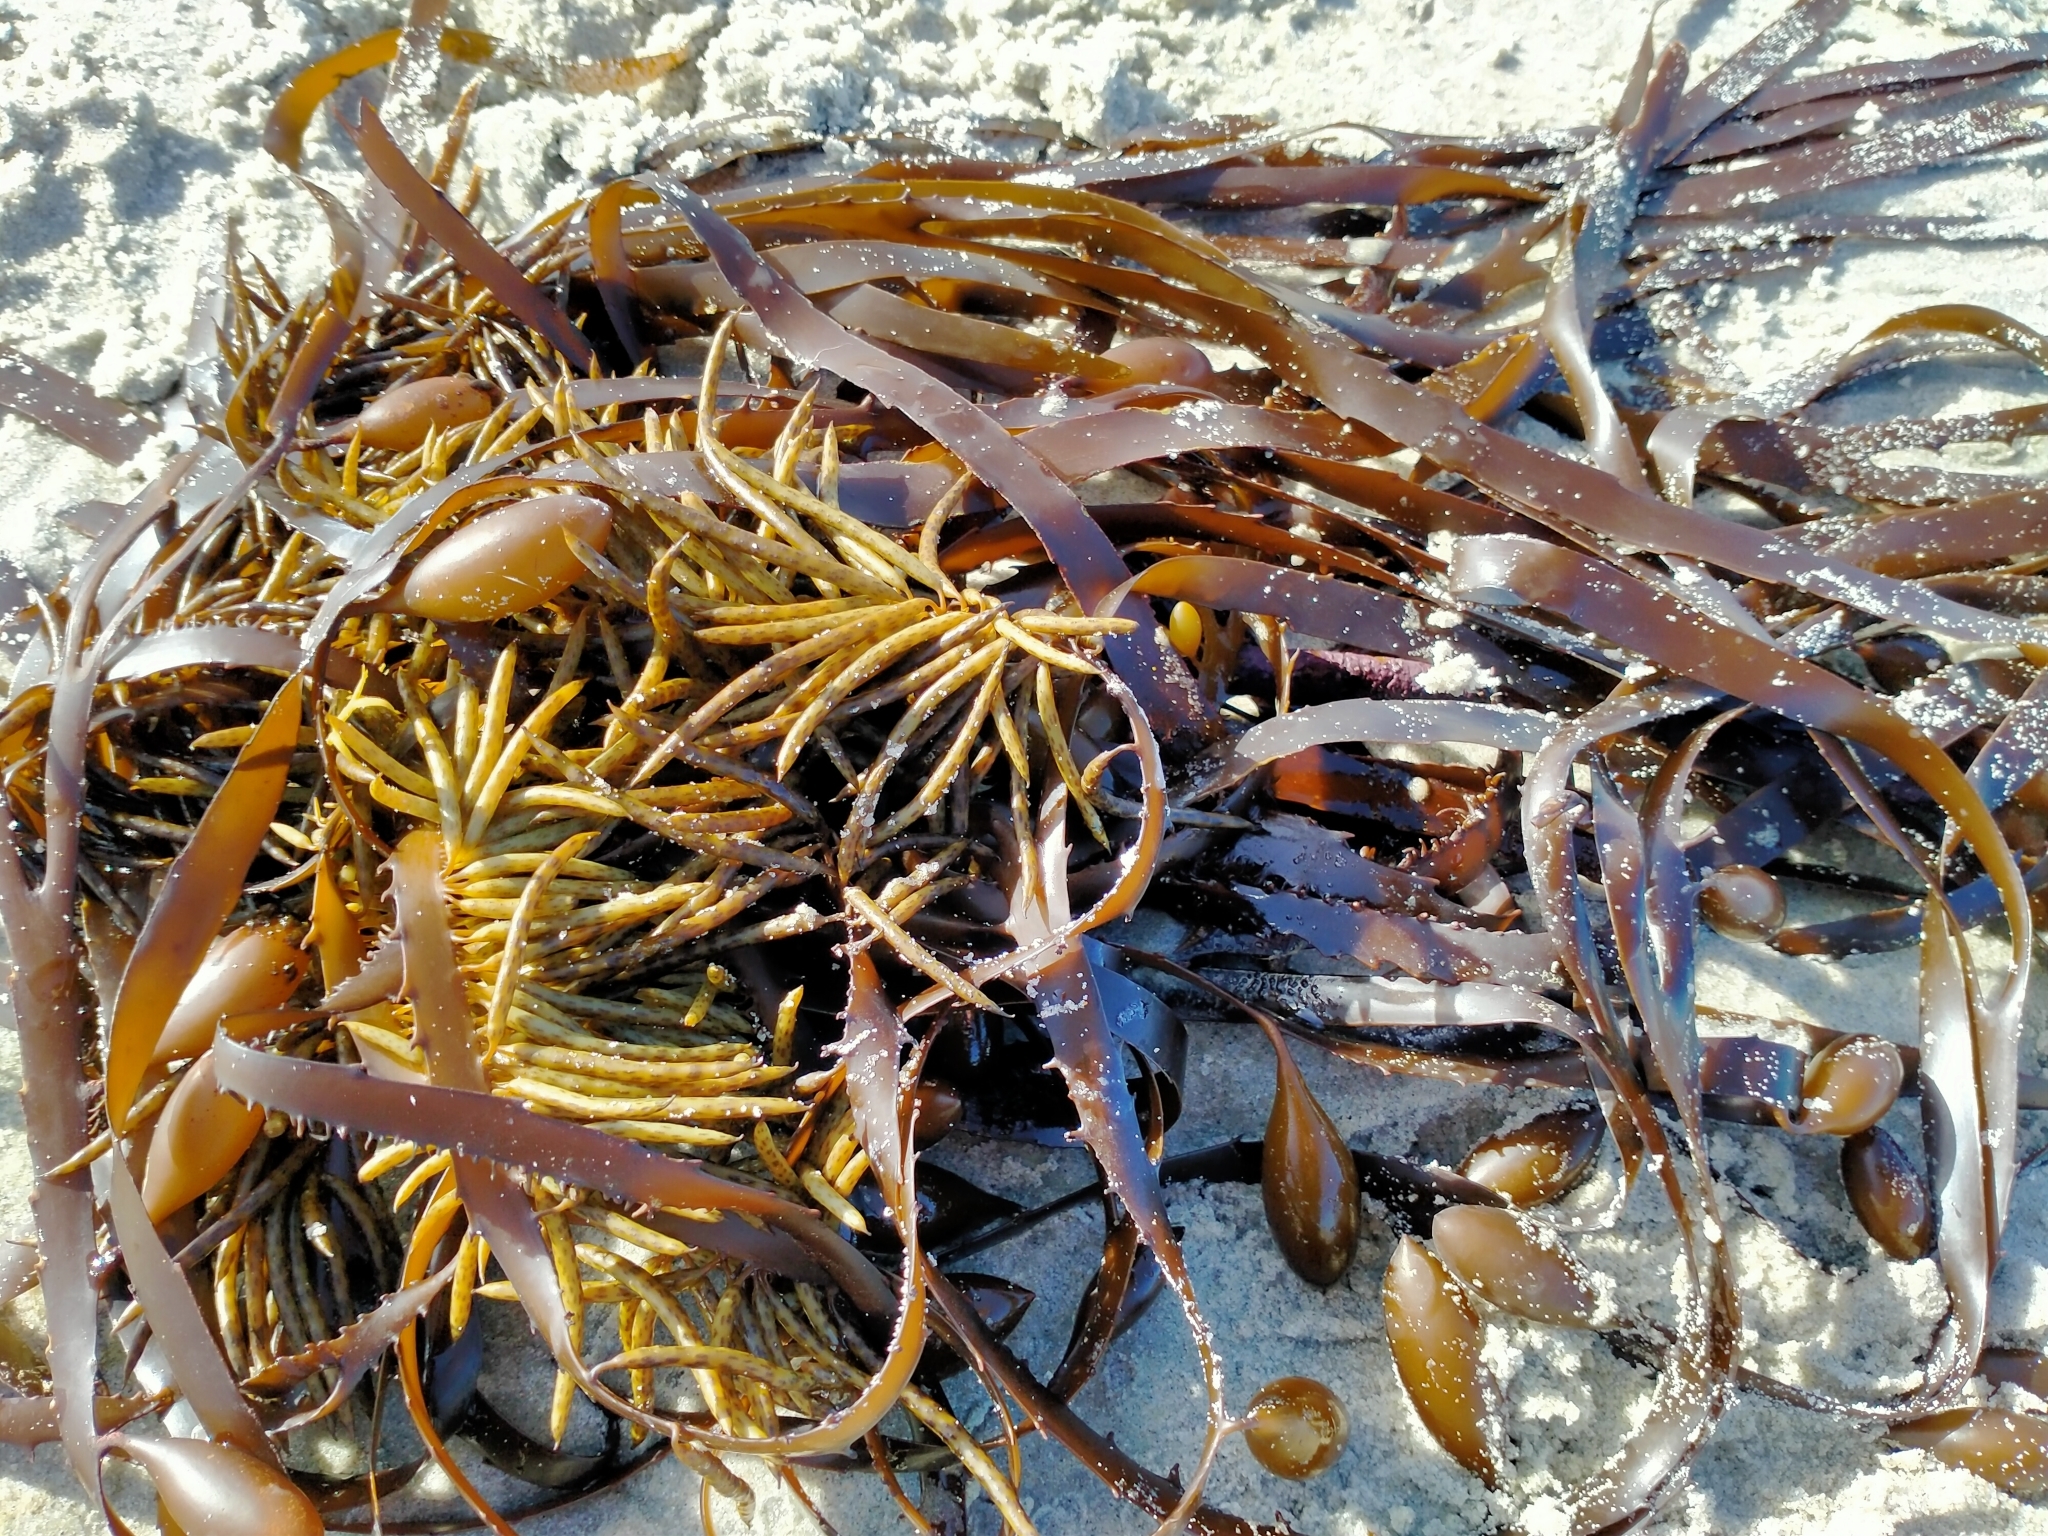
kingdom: Chromista
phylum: Ochrophyta
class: Phaeophyceae
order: Fucales
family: Seirococcaceae
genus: Marginariella
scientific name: Marginariella boryana
